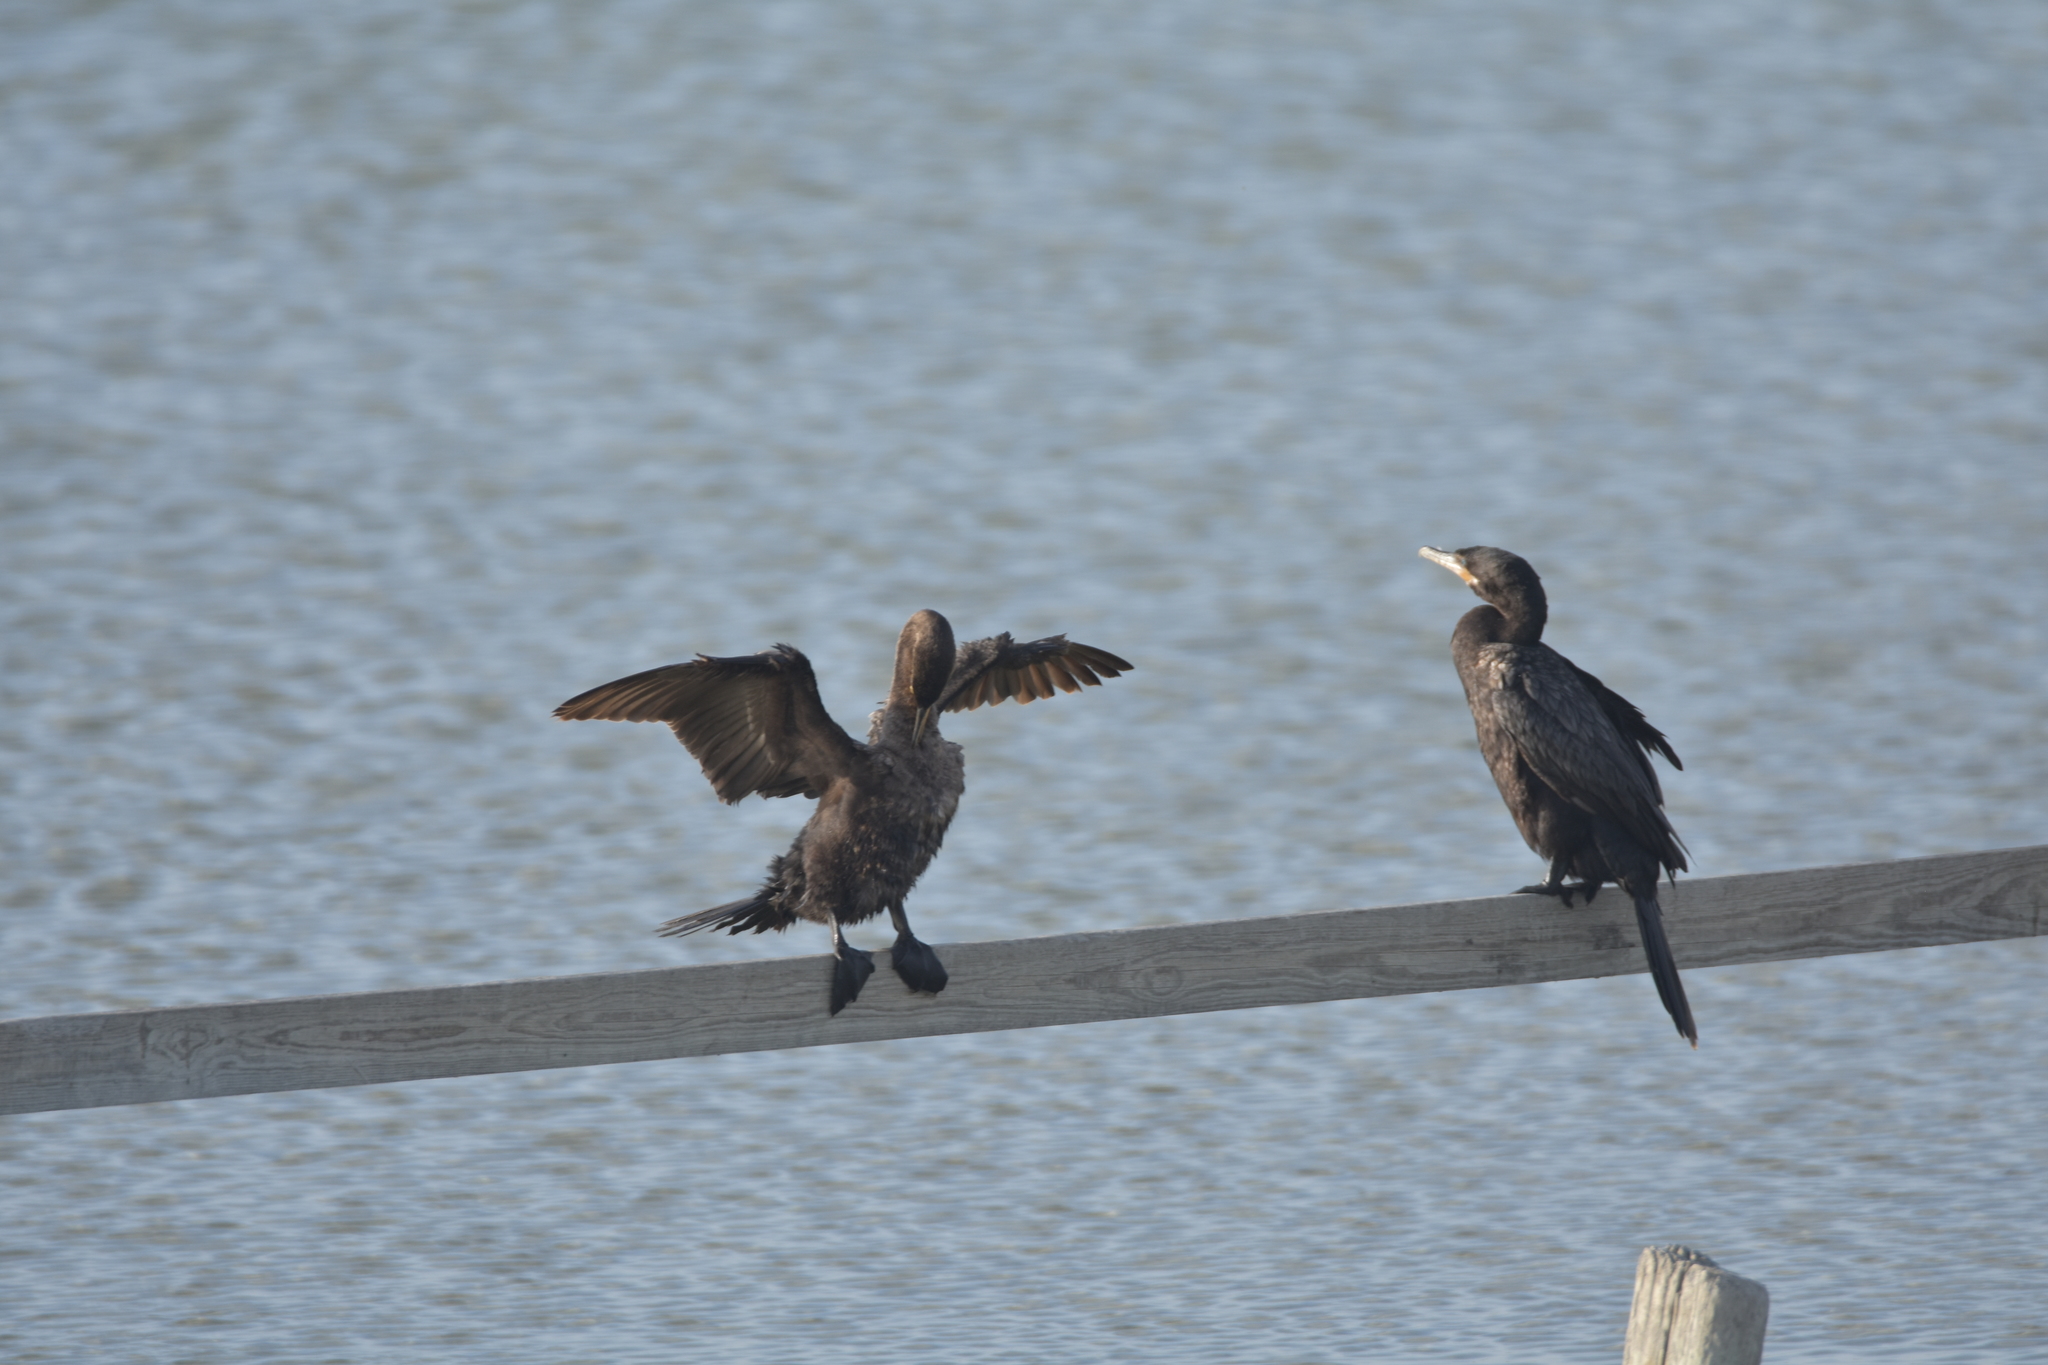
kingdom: Animalia
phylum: Chordata
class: Aves
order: Suliformes
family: Phalacrocoracidae
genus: Phalacrocorax
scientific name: Phalacrocorax brasilianus
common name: Neotropic cormorant
